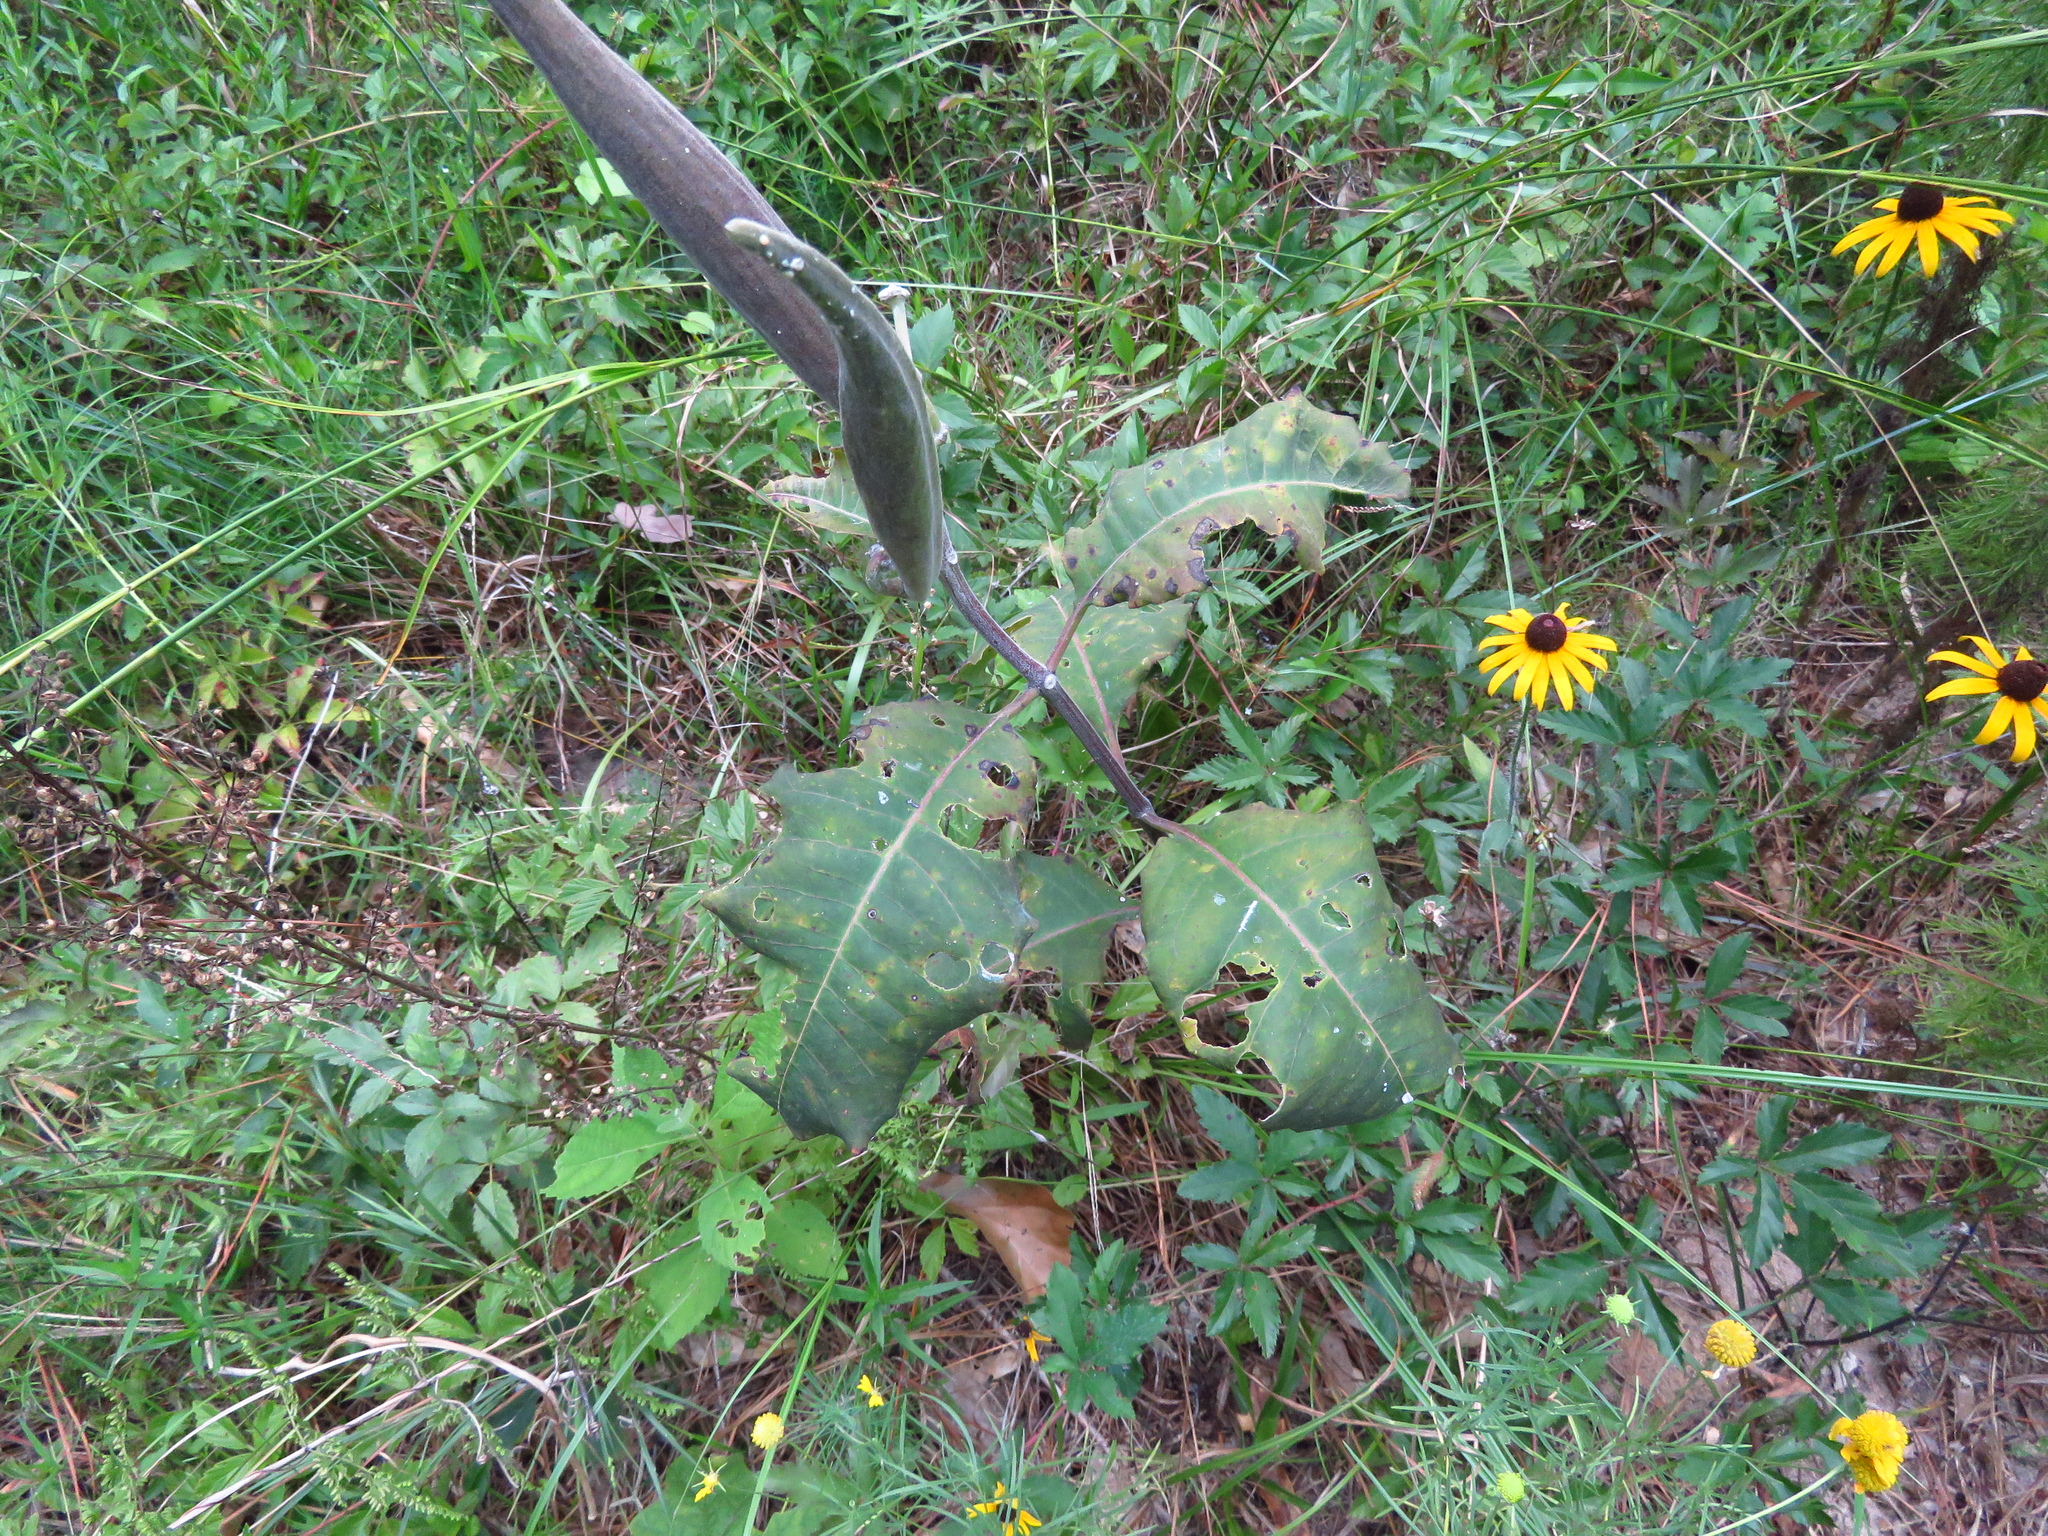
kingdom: Plantae
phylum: Tracheophyta
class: Magnoliopsida
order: Gentianales
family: Apocynaceae
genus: Asclepias
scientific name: Asclepias variegata
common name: Variegated milkweed
